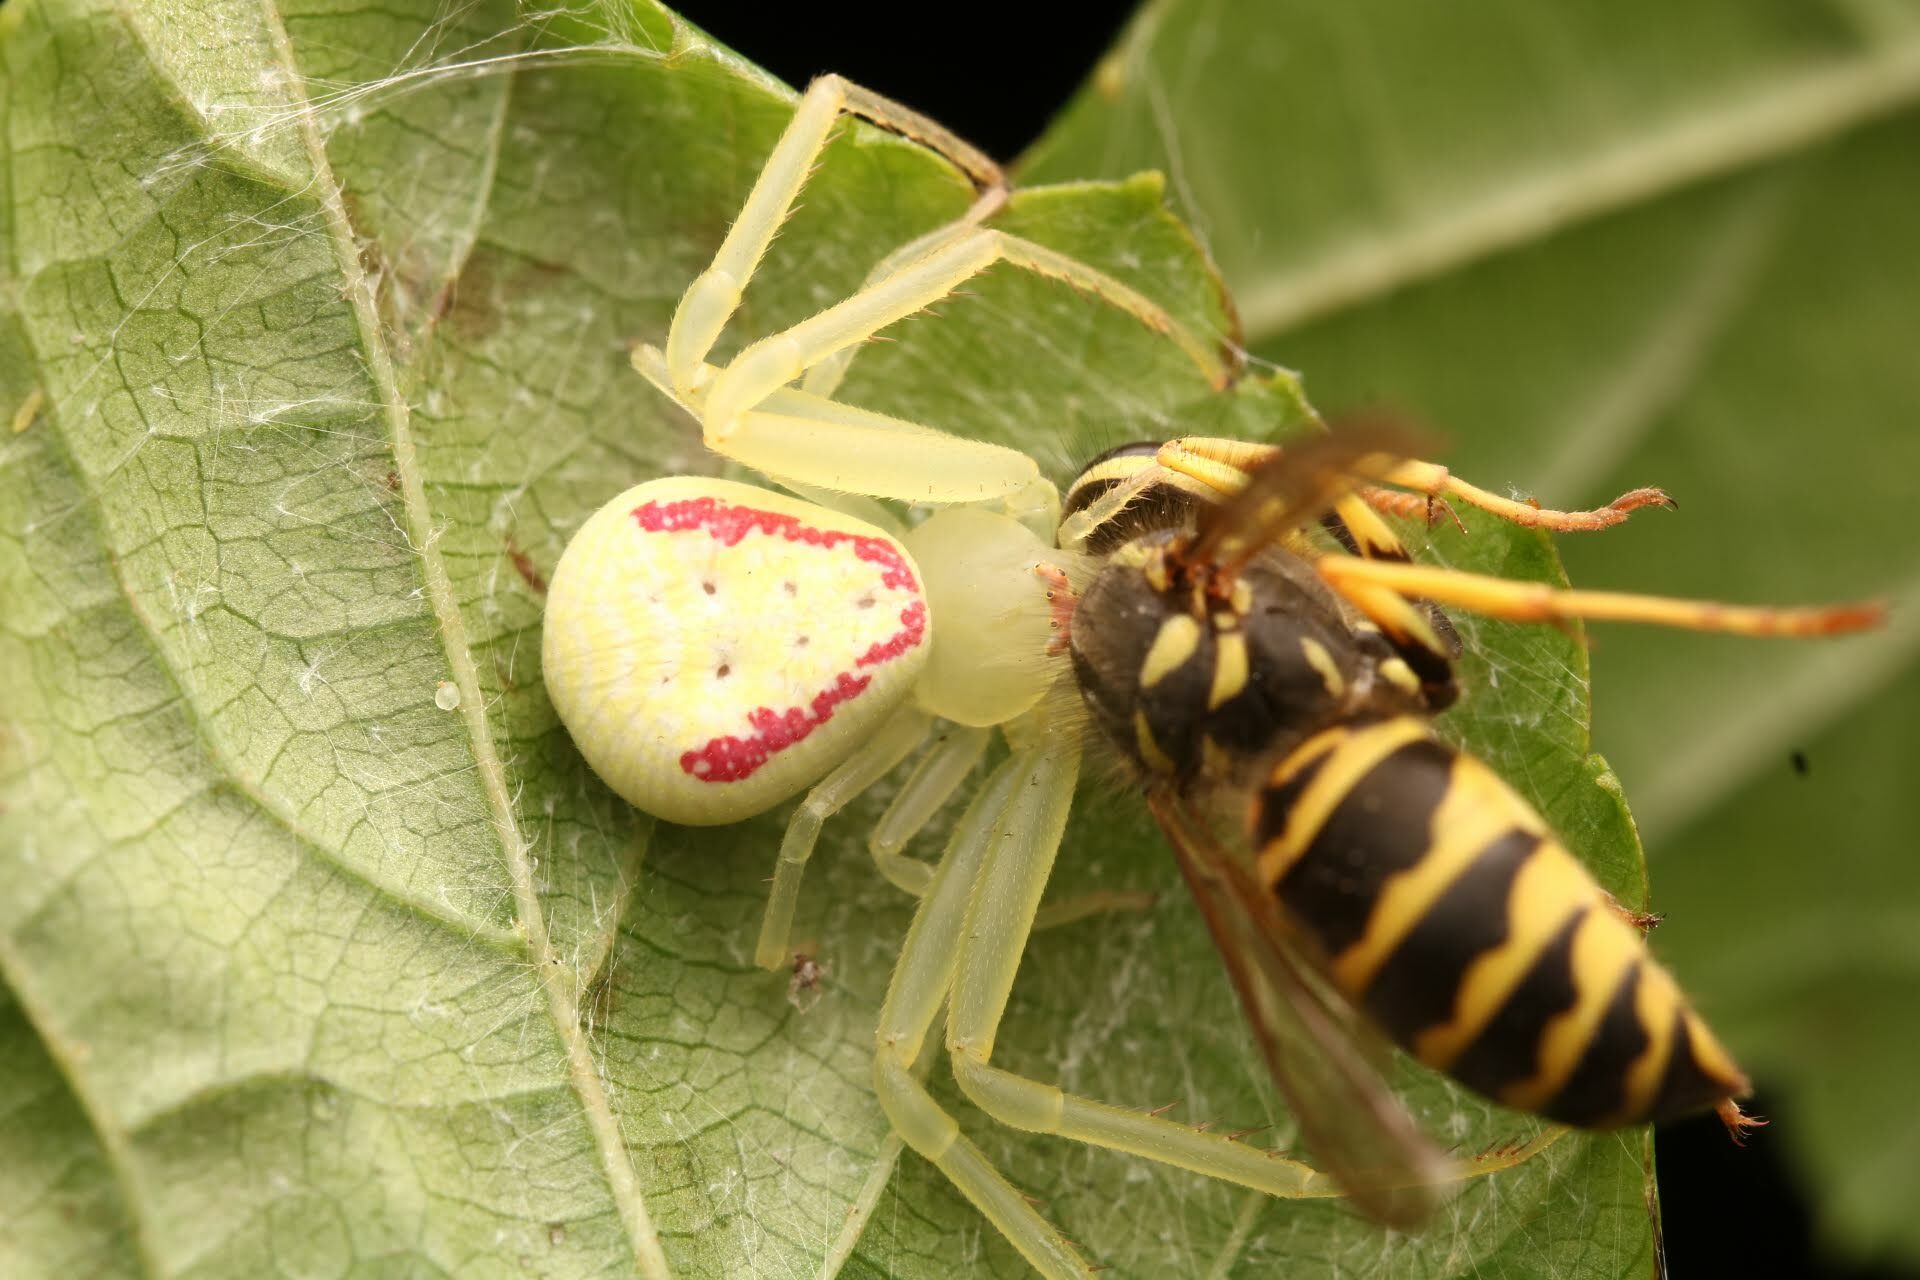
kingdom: Animalia
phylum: Arthropoda
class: Arachnida
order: Araneae
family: Thomisidae
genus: Misumessus
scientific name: Misumessus oblongus
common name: American green crab spider
